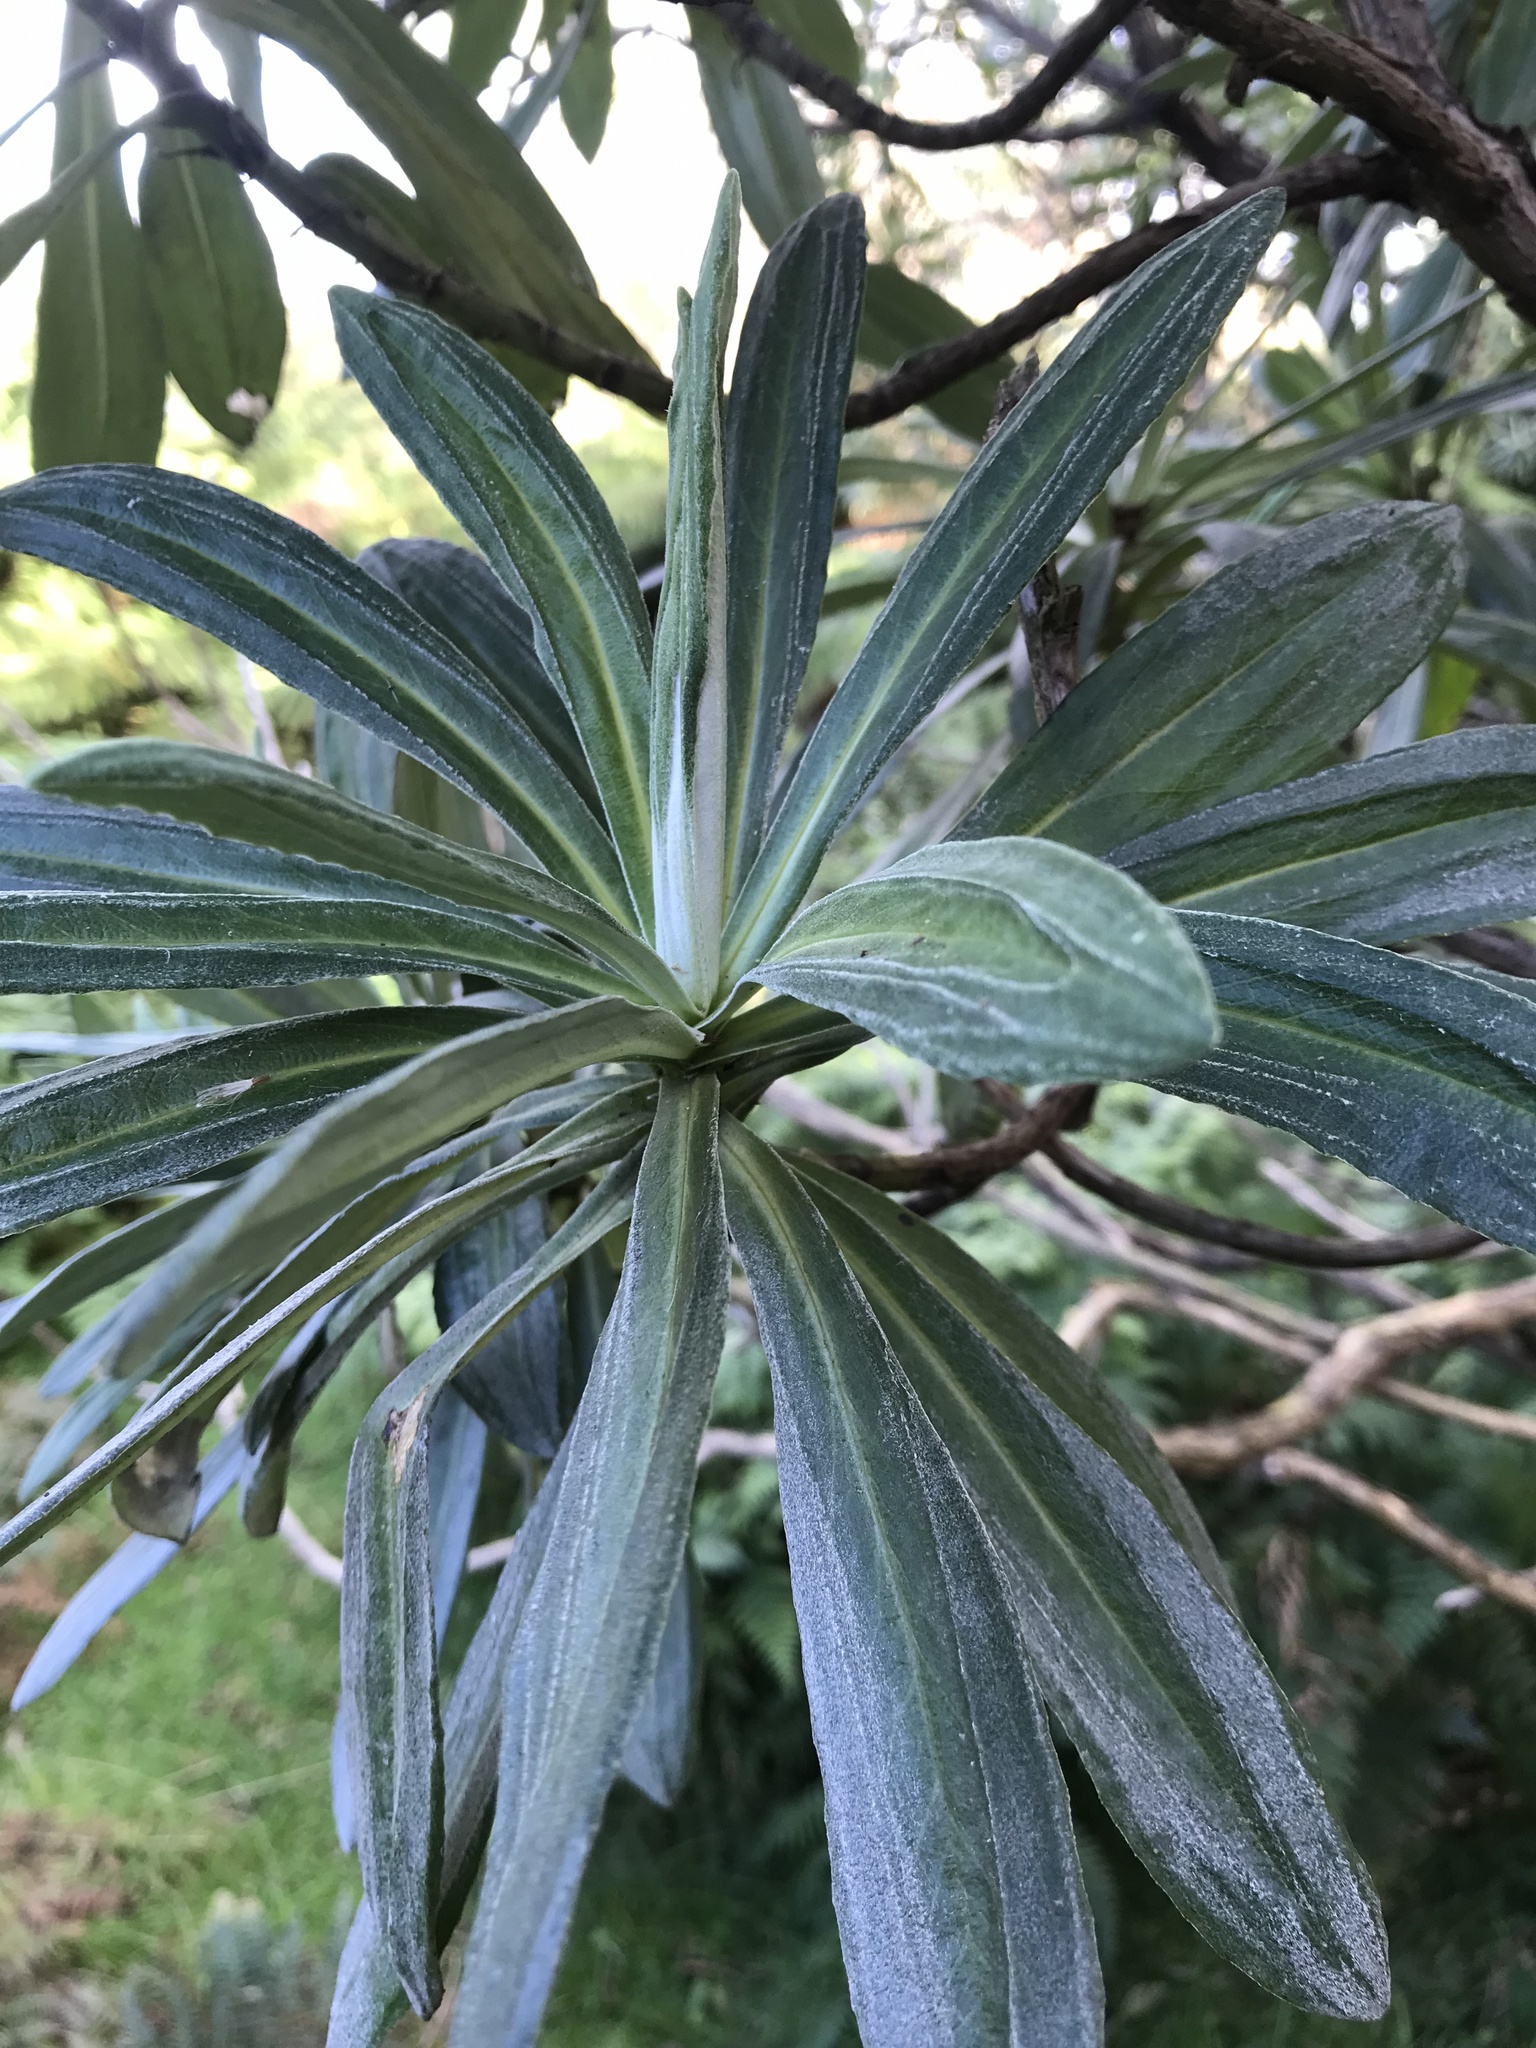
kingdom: Plantae
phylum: Tracheophyta
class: Magnoliopsida
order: Asterales
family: Asteraceae
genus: Brachyglottis
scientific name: Brachyglottis huntii
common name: Chatham island christmas tree
